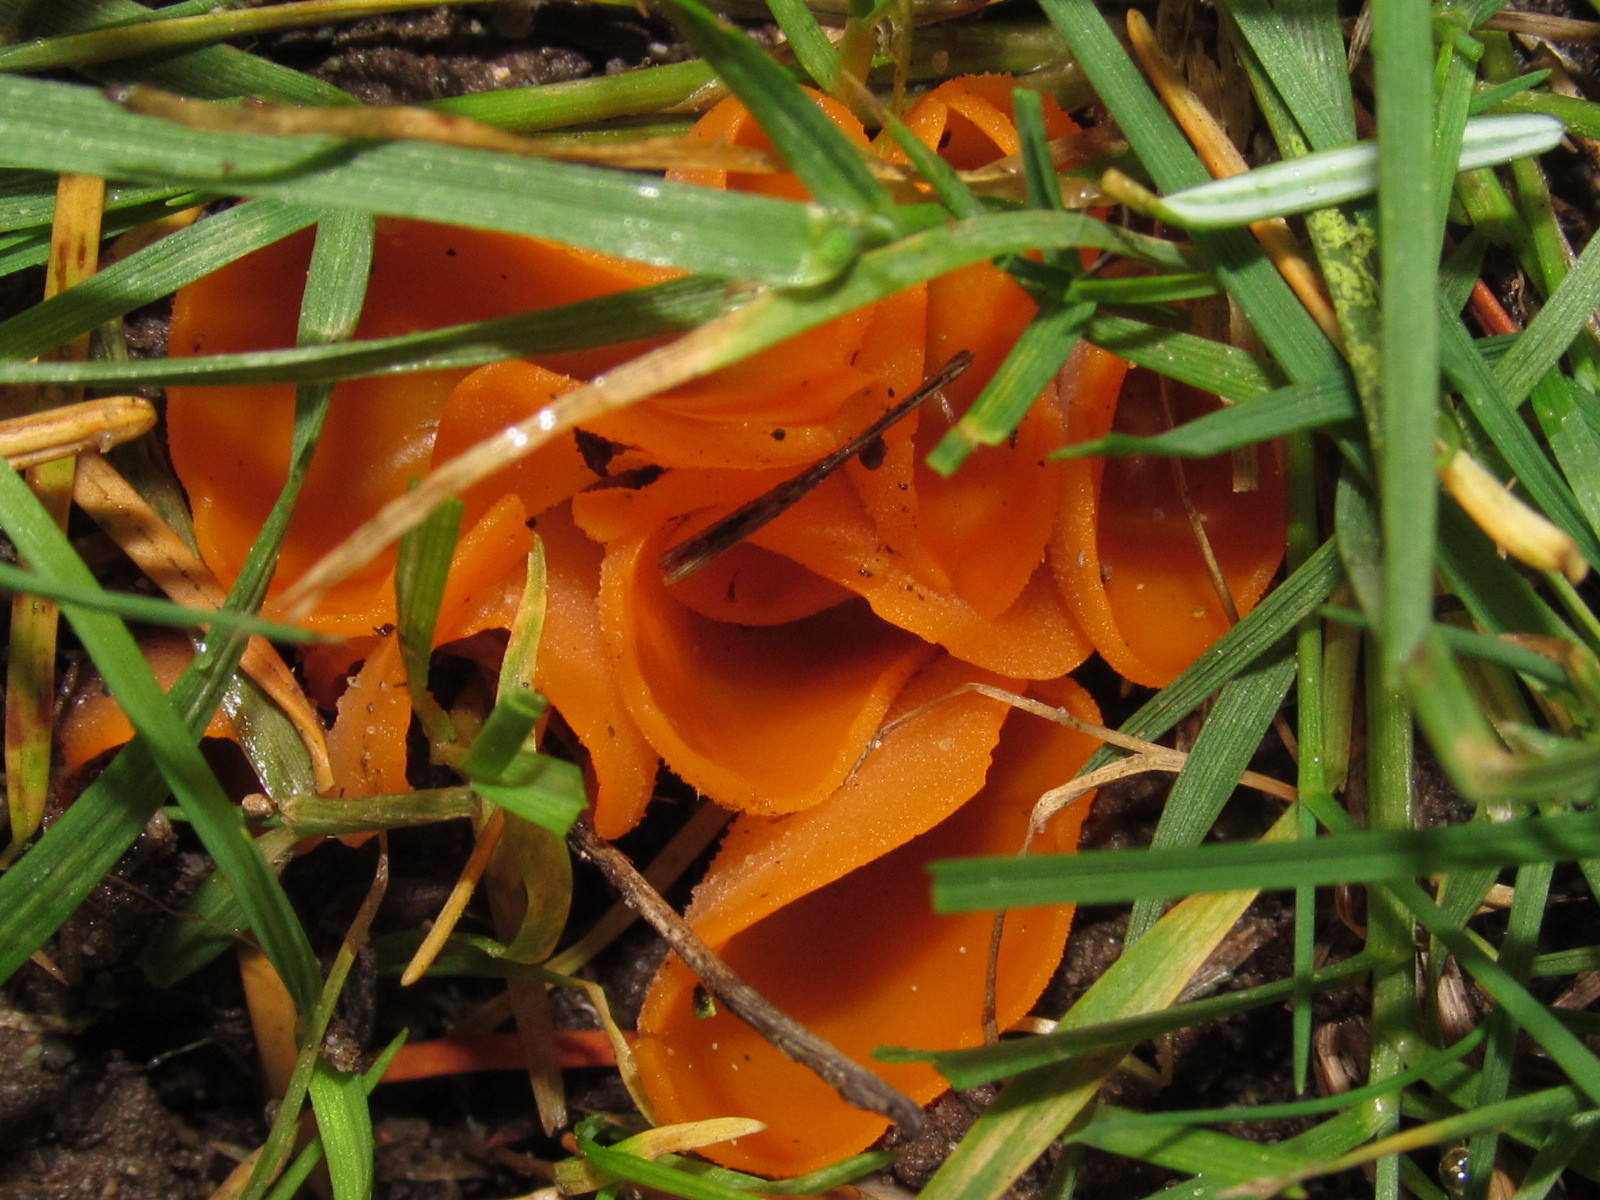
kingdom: Fungi
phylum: Ascomycota
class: Pezizomycetes
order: Pezizales
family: Pyronemataceae
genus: Aleuria
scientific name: Aleuria aurantia
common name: Orange peel fungus
